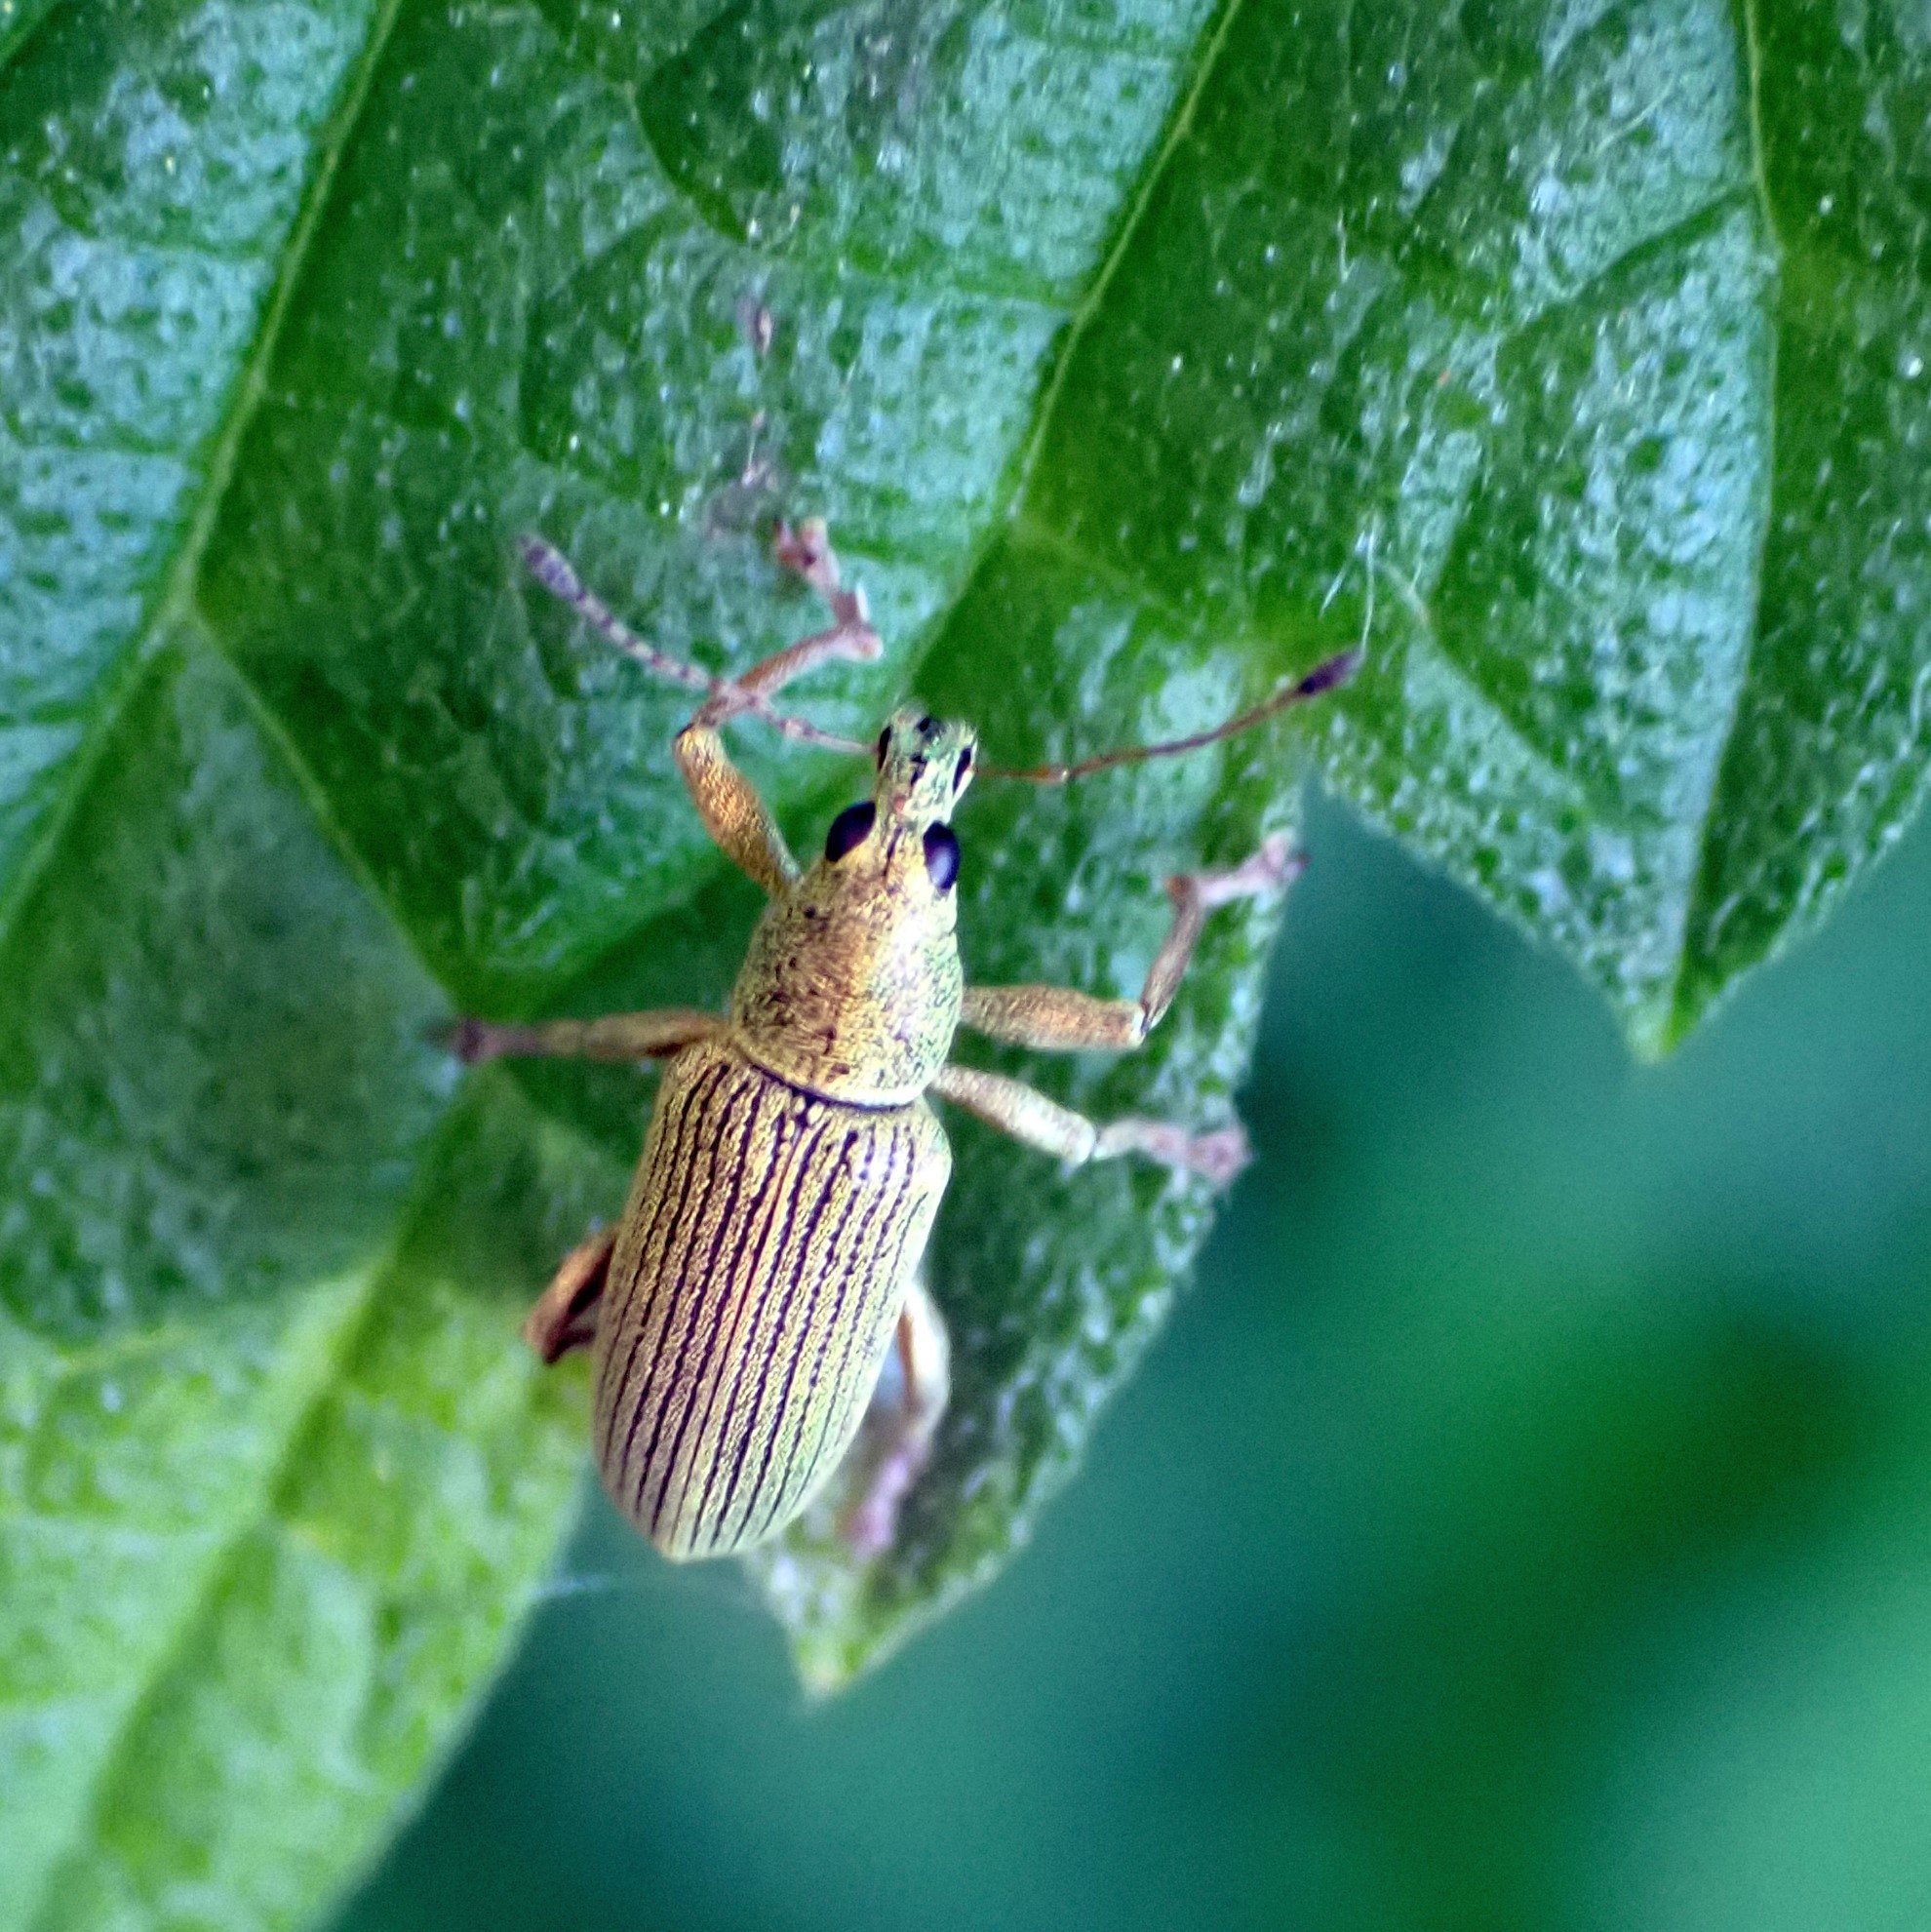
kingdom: Animalia
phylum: Arthropoda
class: Insecta
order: Coleoptera
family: Curculionidae
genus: Polydrusus
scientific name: Polydrusus formosus
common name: Weevil
